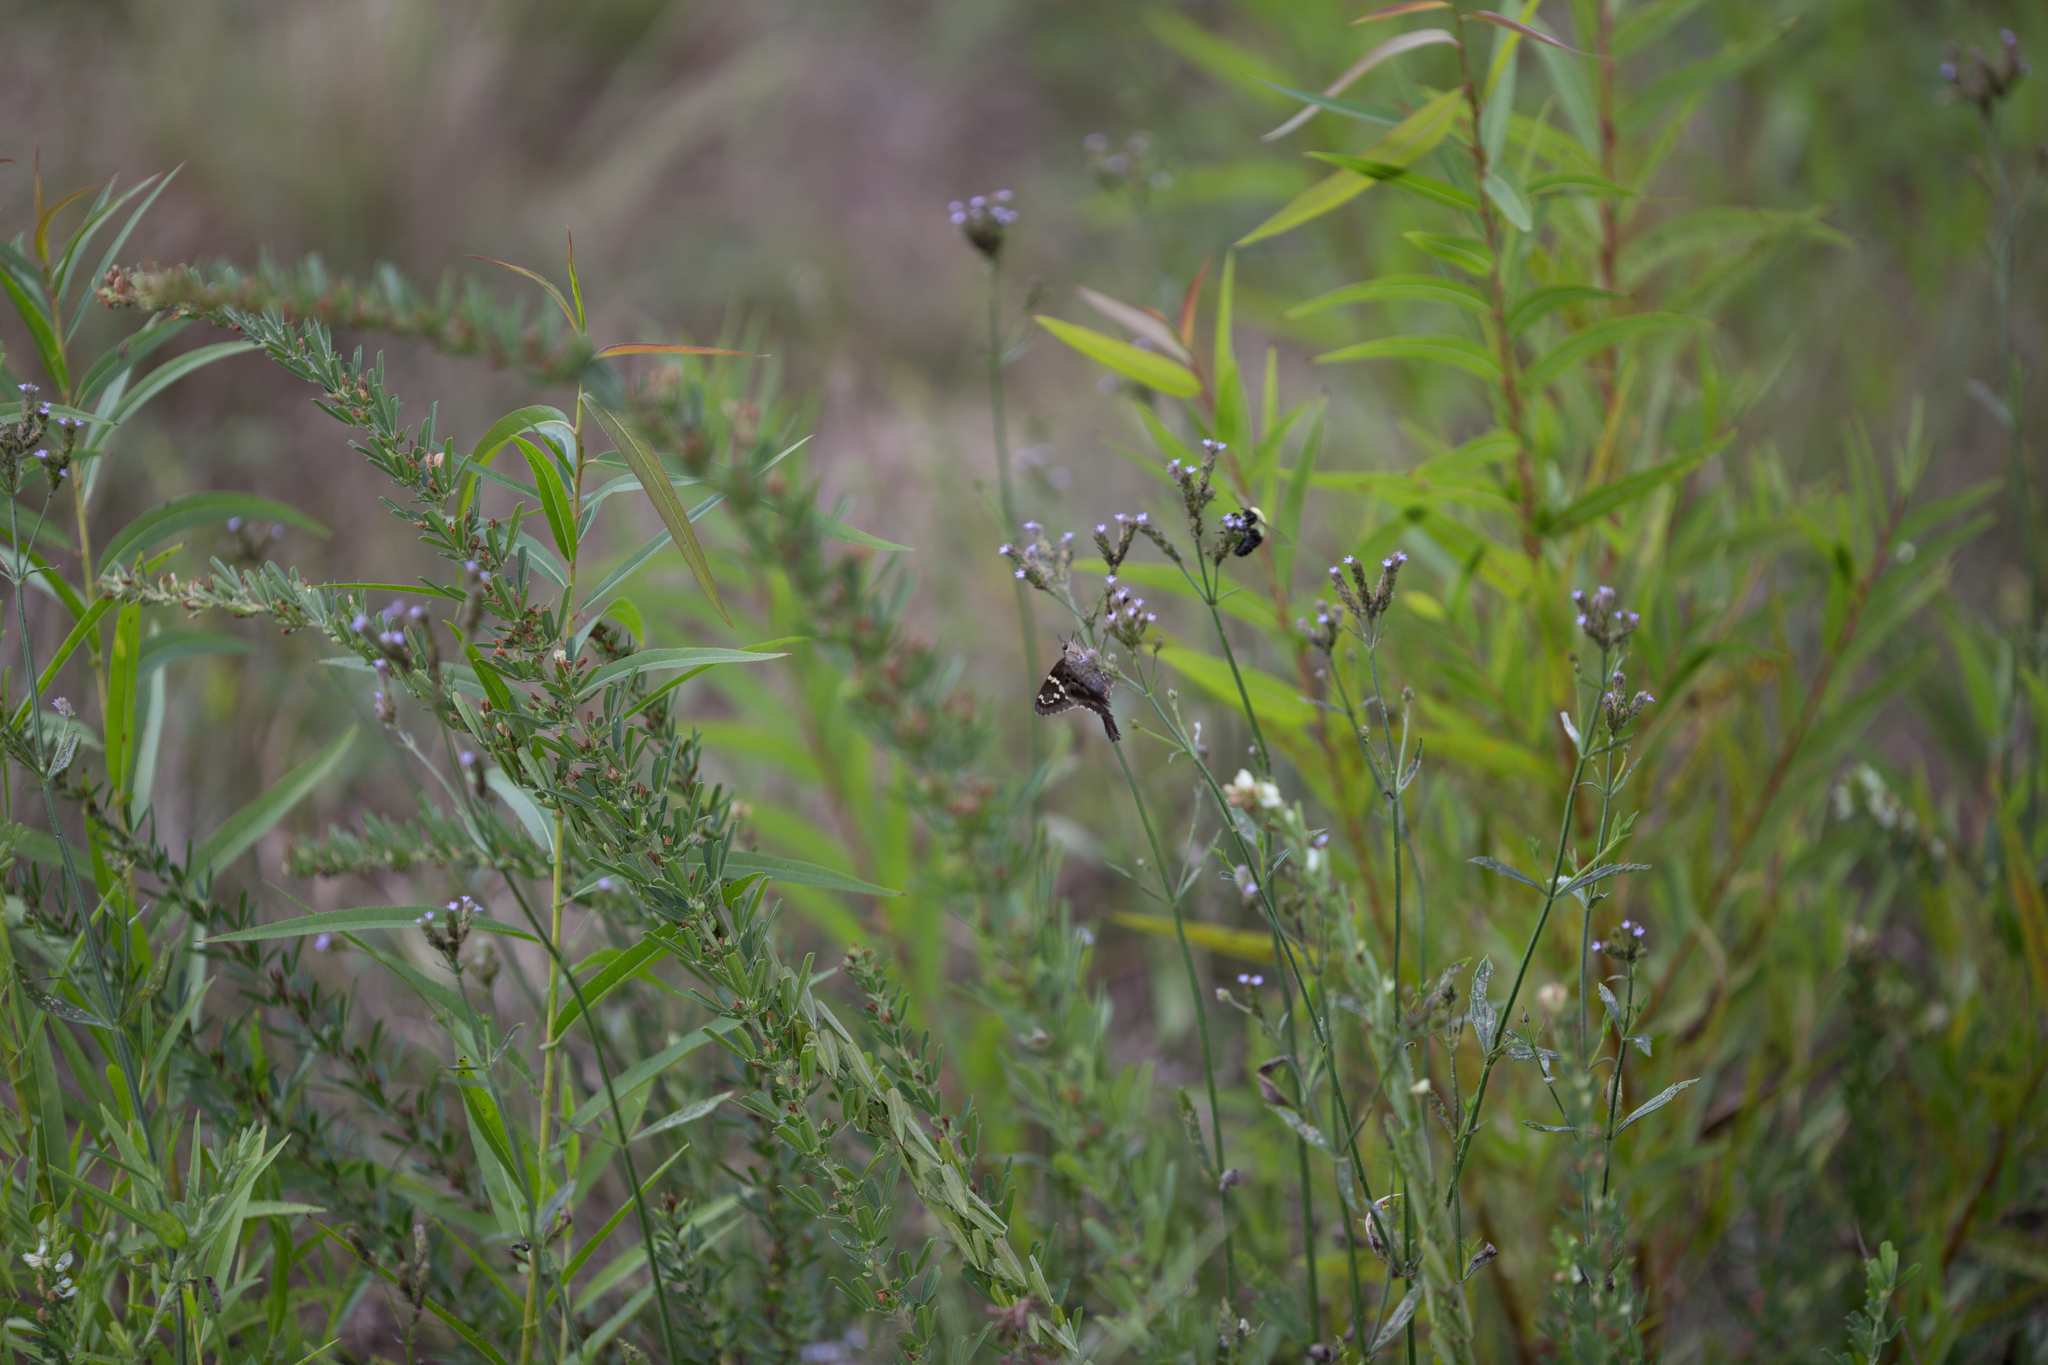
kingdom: Animalia
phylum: Arthropoda
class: Insecta
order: Lepidoptera
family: Hesperiidae
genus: Urbanus
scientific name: Urbanus proteus
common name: Long-tailed skipper
